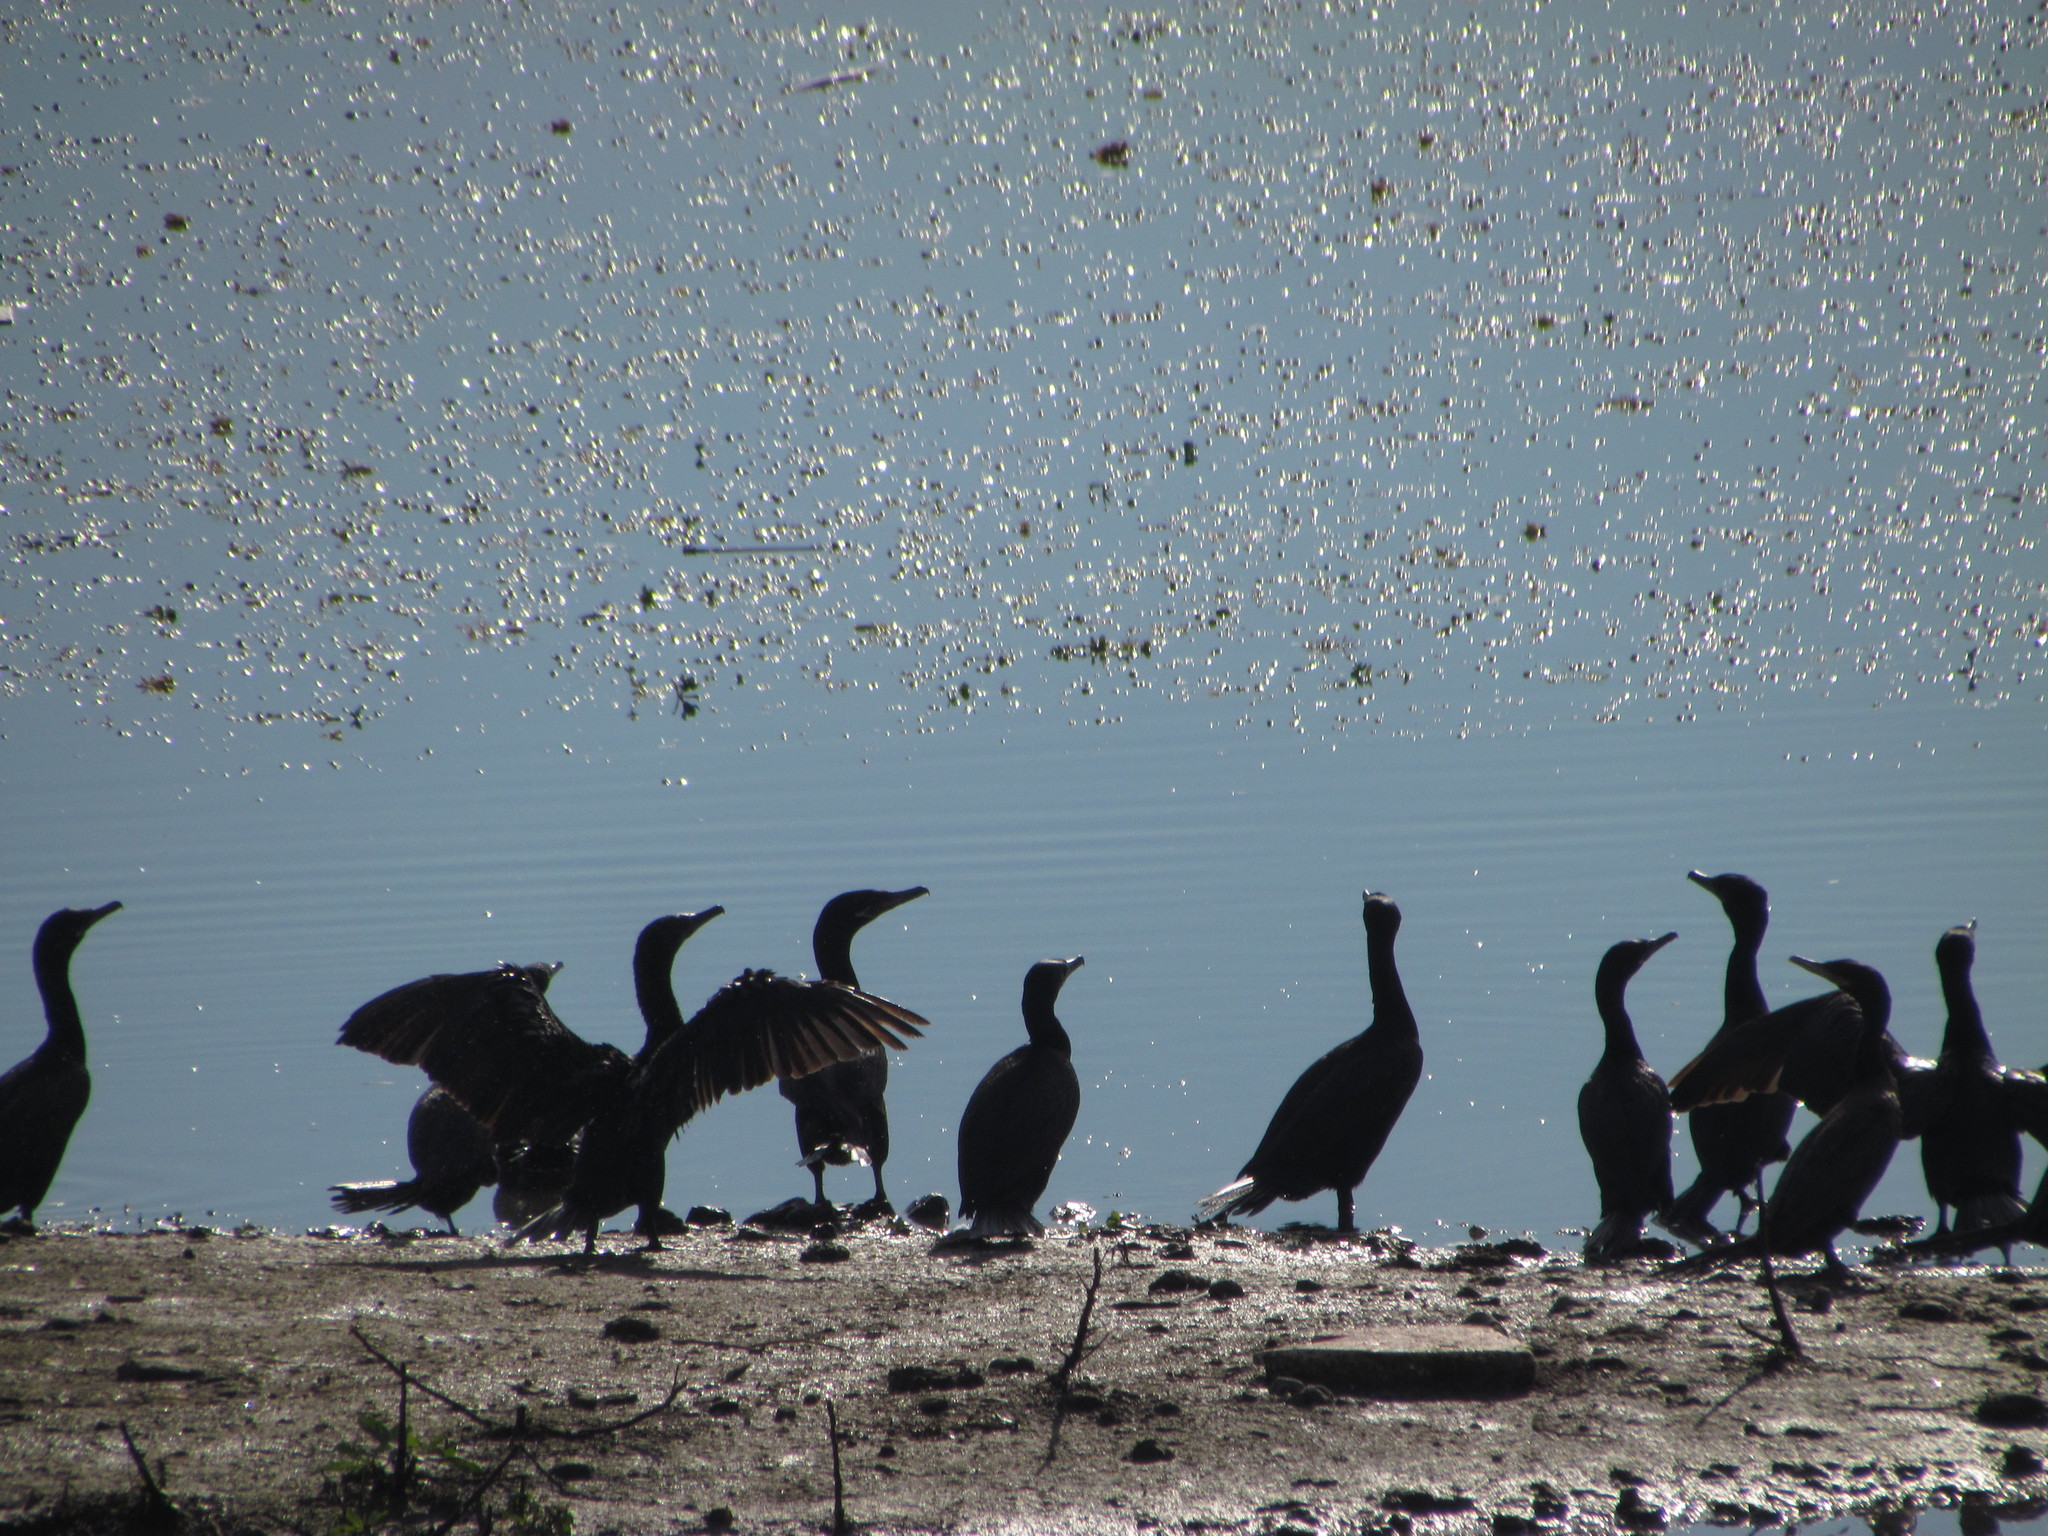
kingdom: Animalia
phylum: Chordata
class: Aves
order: Suliformes
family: Phalacrocoracidae
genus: Phalacrocorax
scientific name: Phalacrocorax brasilianus
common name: Neotropic cormorant
